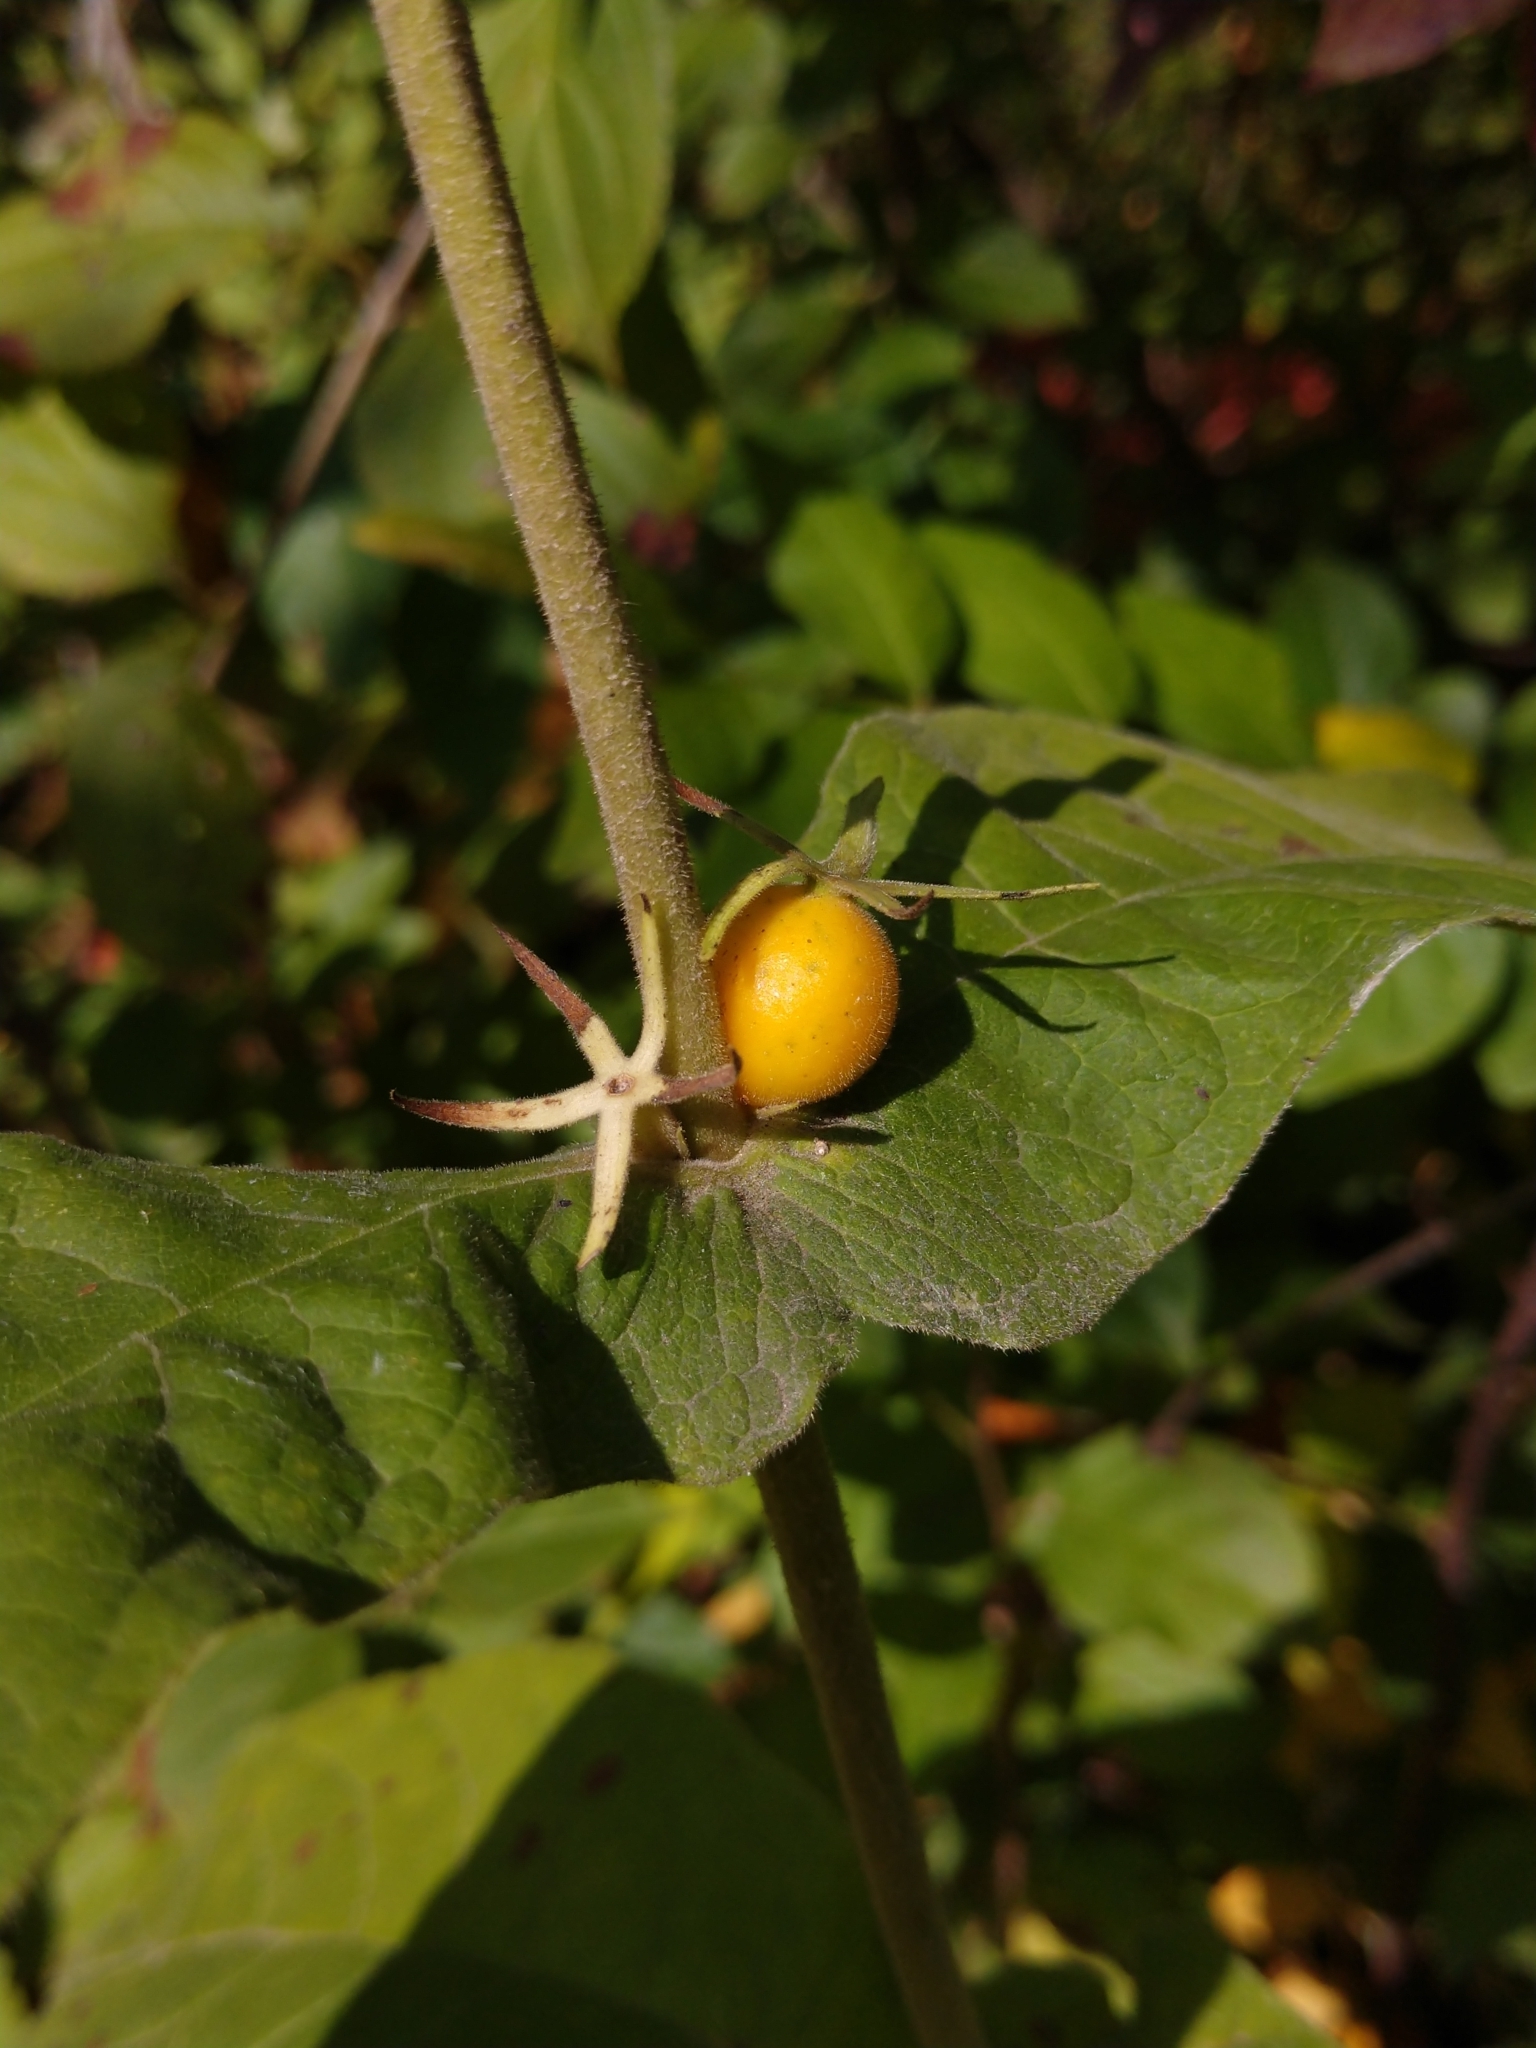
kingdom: Plantae
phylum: Tracheophyta
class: Magnoliopsida
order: Dipsacales
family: Caprifoliaceae
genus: Triosteum
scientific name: Triosteum perfoliatum
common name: Common horse-gentian
